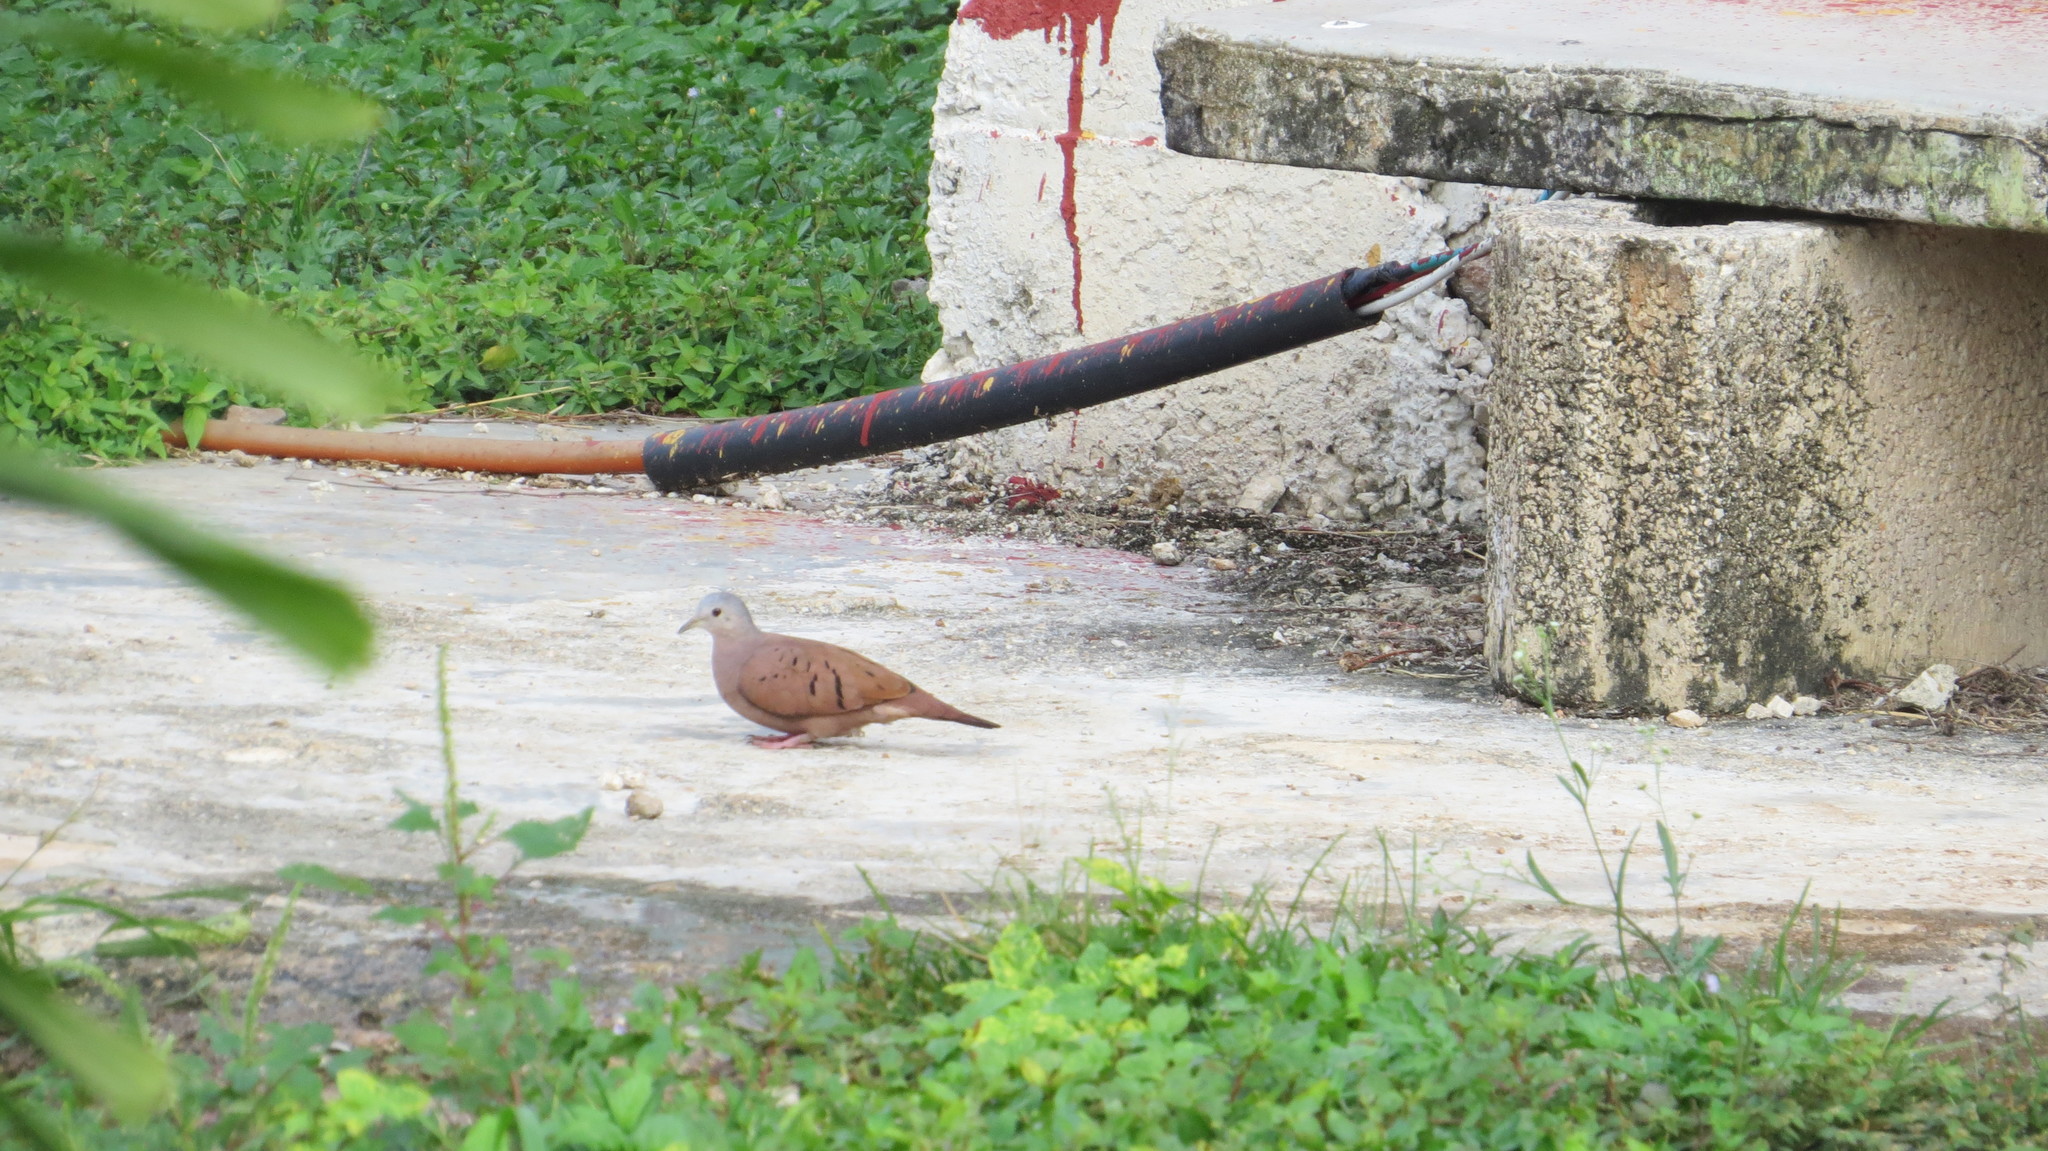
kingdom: Animalia
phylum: Chordata
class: Aves
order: Columbiformes
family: Columbidae
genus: Columbina
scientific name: Columbina talpacoti
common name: Ruddy ground dove
